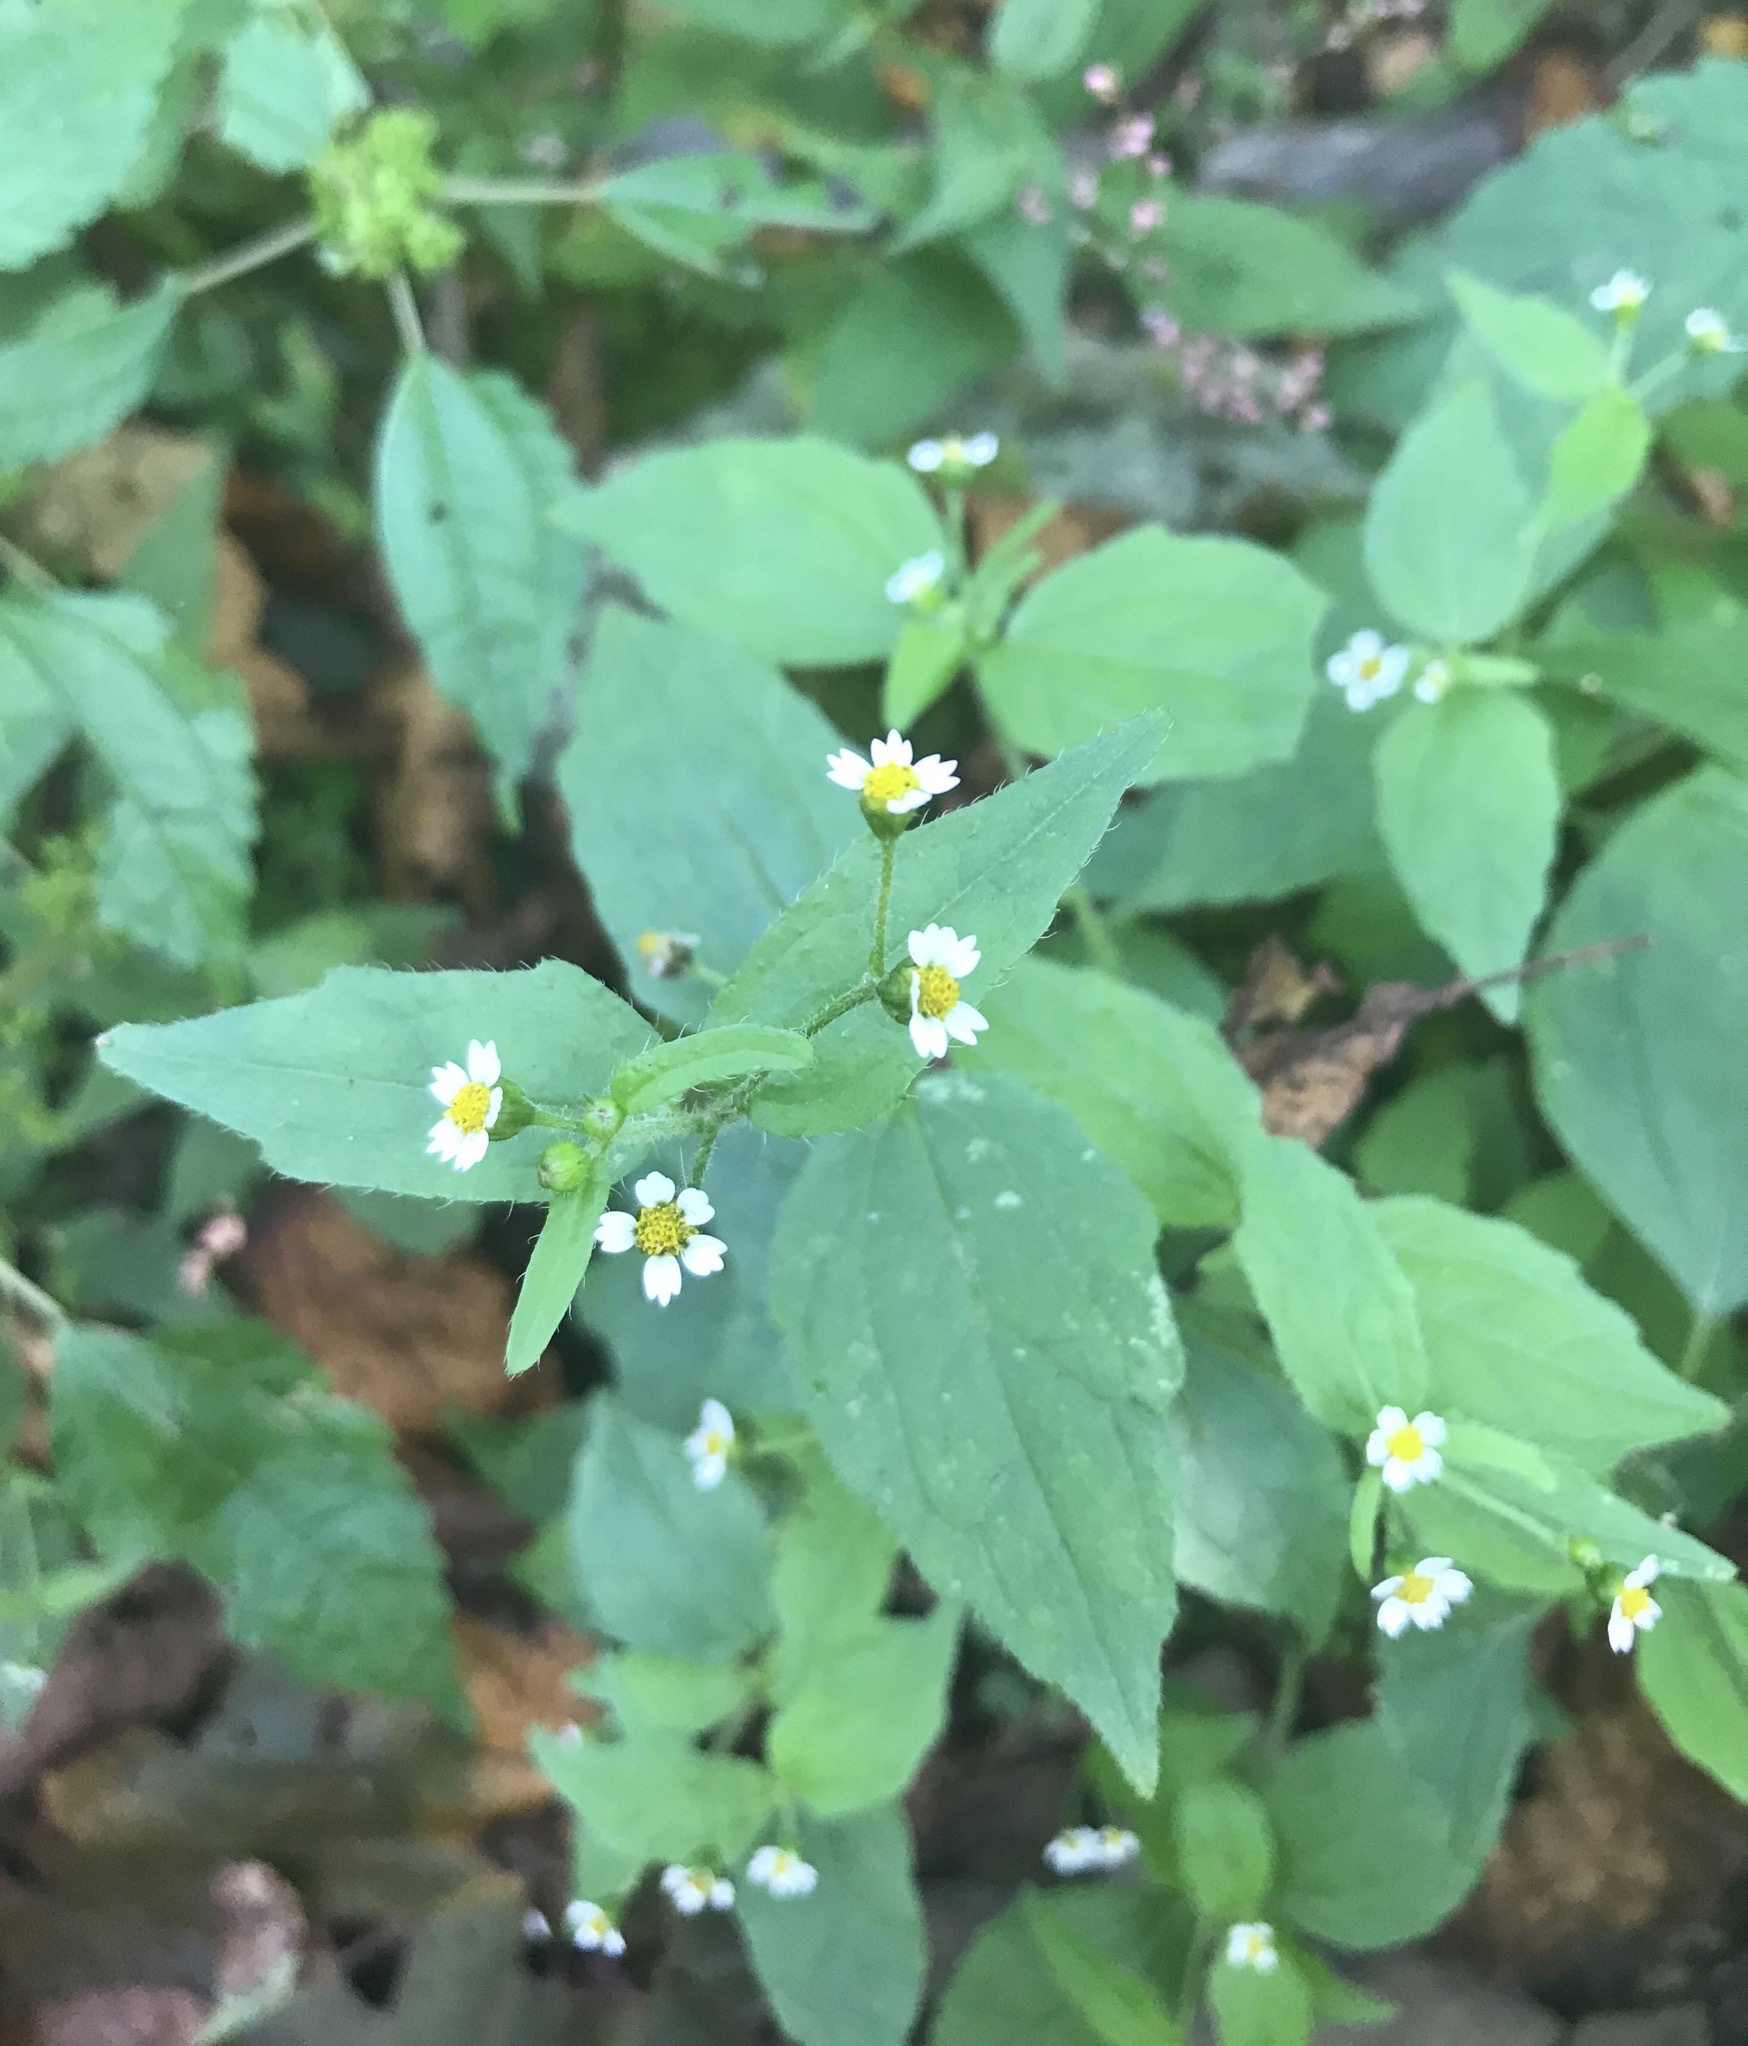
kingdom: Plantae
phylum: Tracheophyta
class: Magnoliopsida
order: Asterales
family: Asteraceae
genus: Galinsoga
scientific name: Galinsoga quadriradiata
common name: Shaggy soldier
